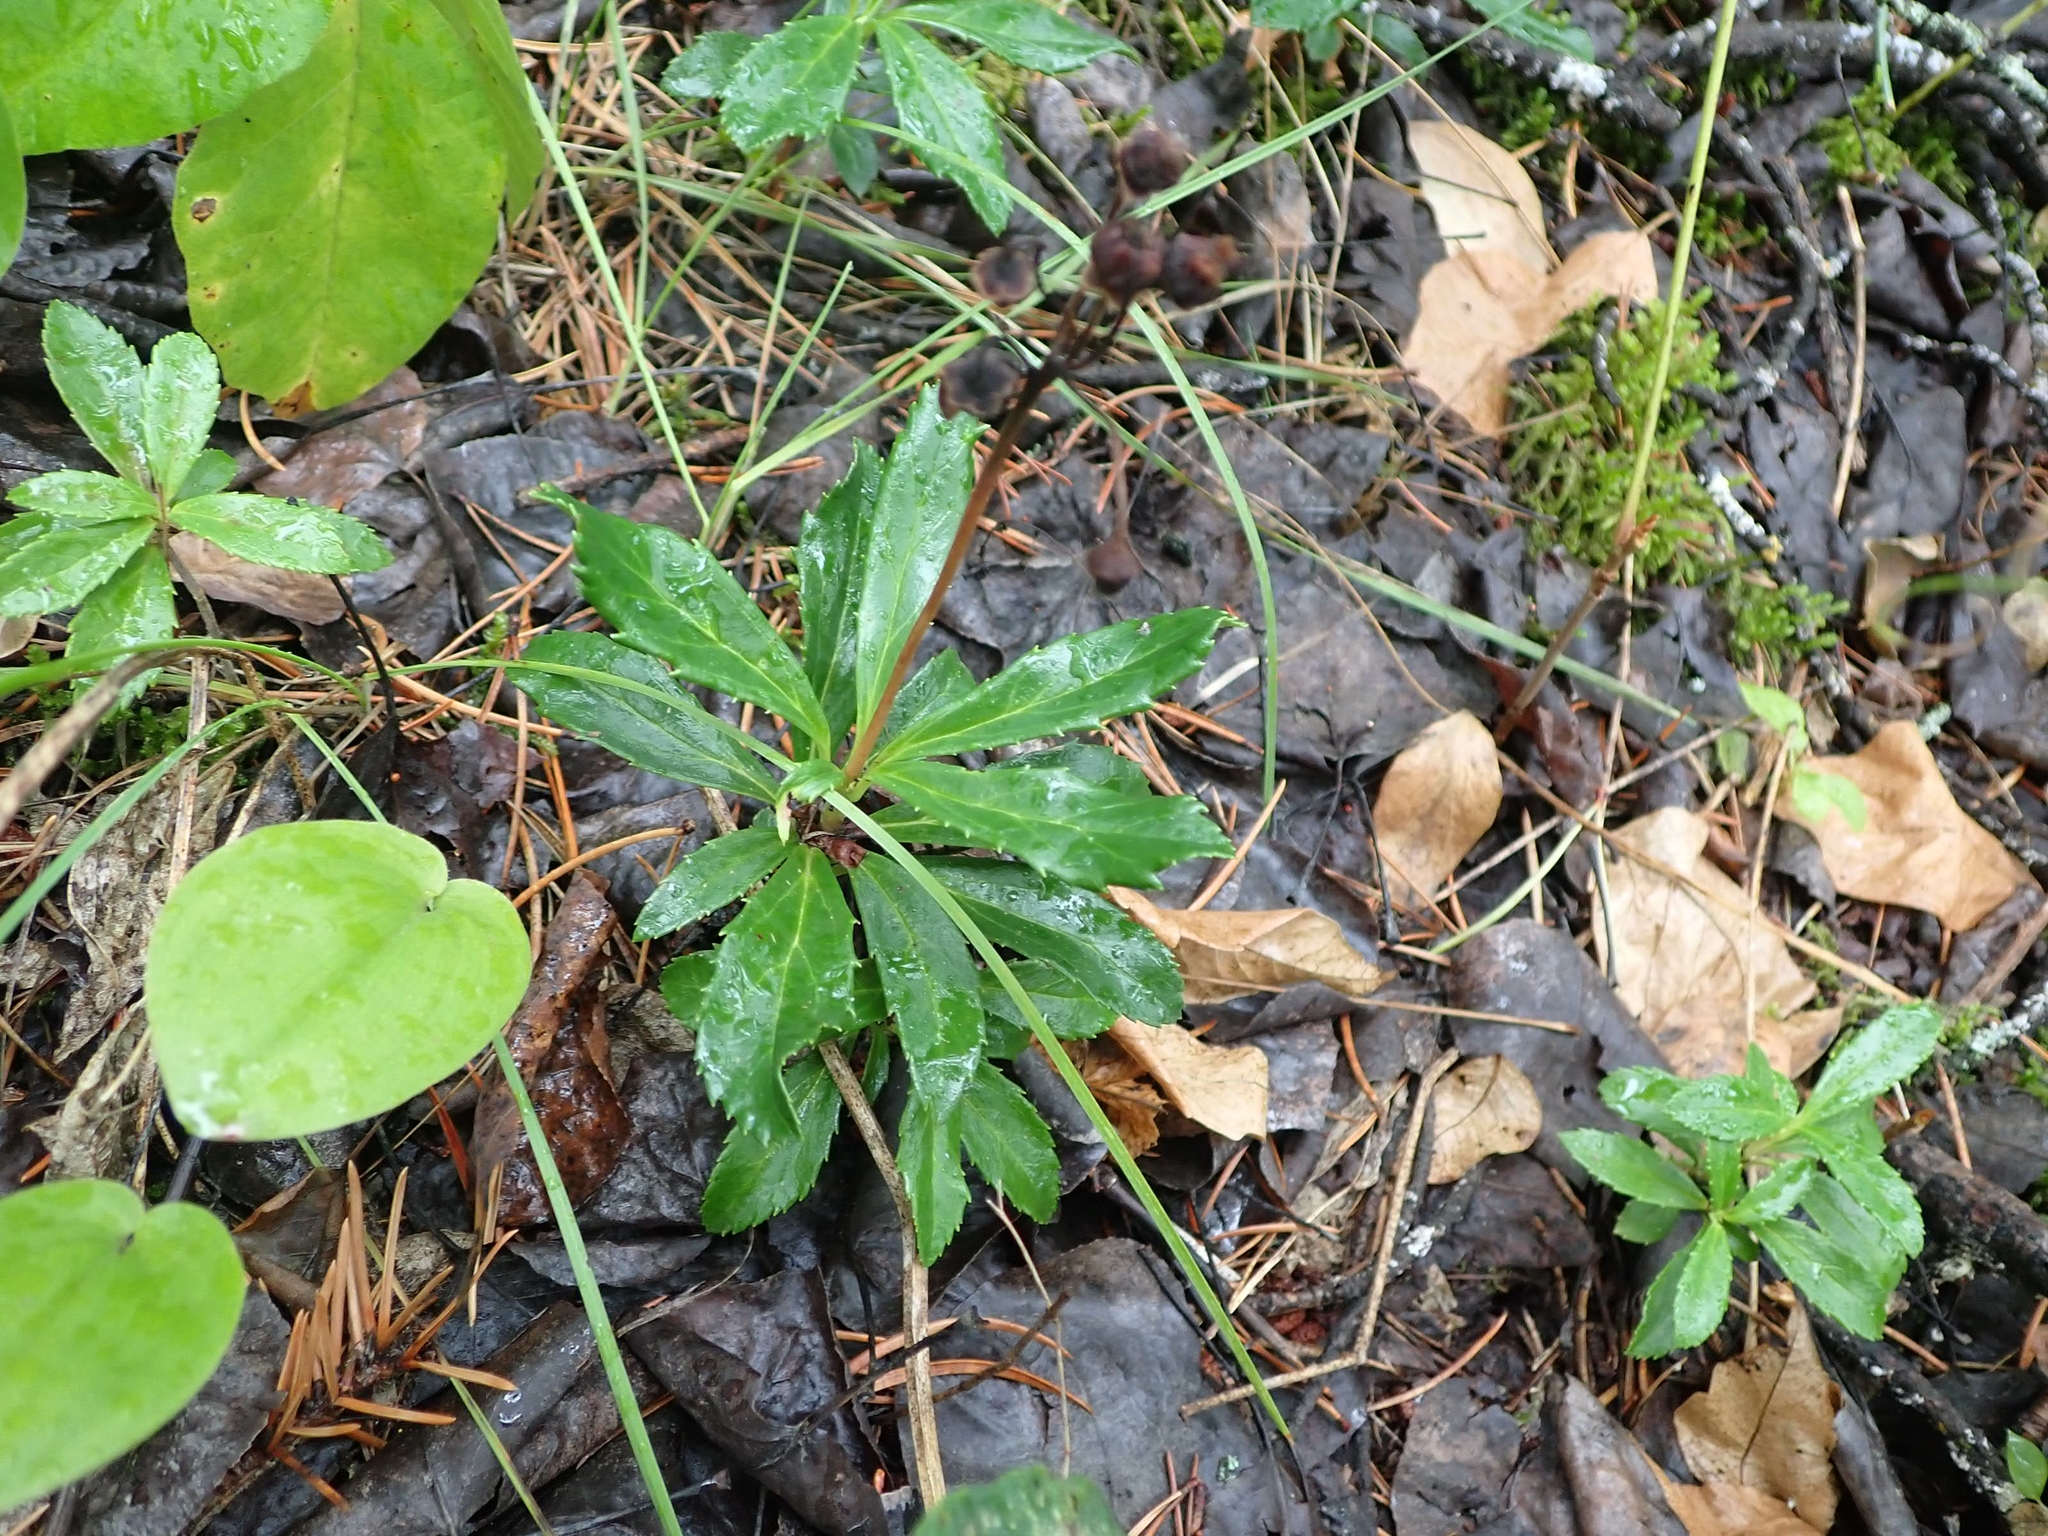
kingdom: Plantae
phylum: Tracheophyta
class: Magnoliopsida
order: Ericales
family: Ericaceae
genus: Chimaphila
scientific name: Chimaphila umbellata
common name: Pipsissewa
